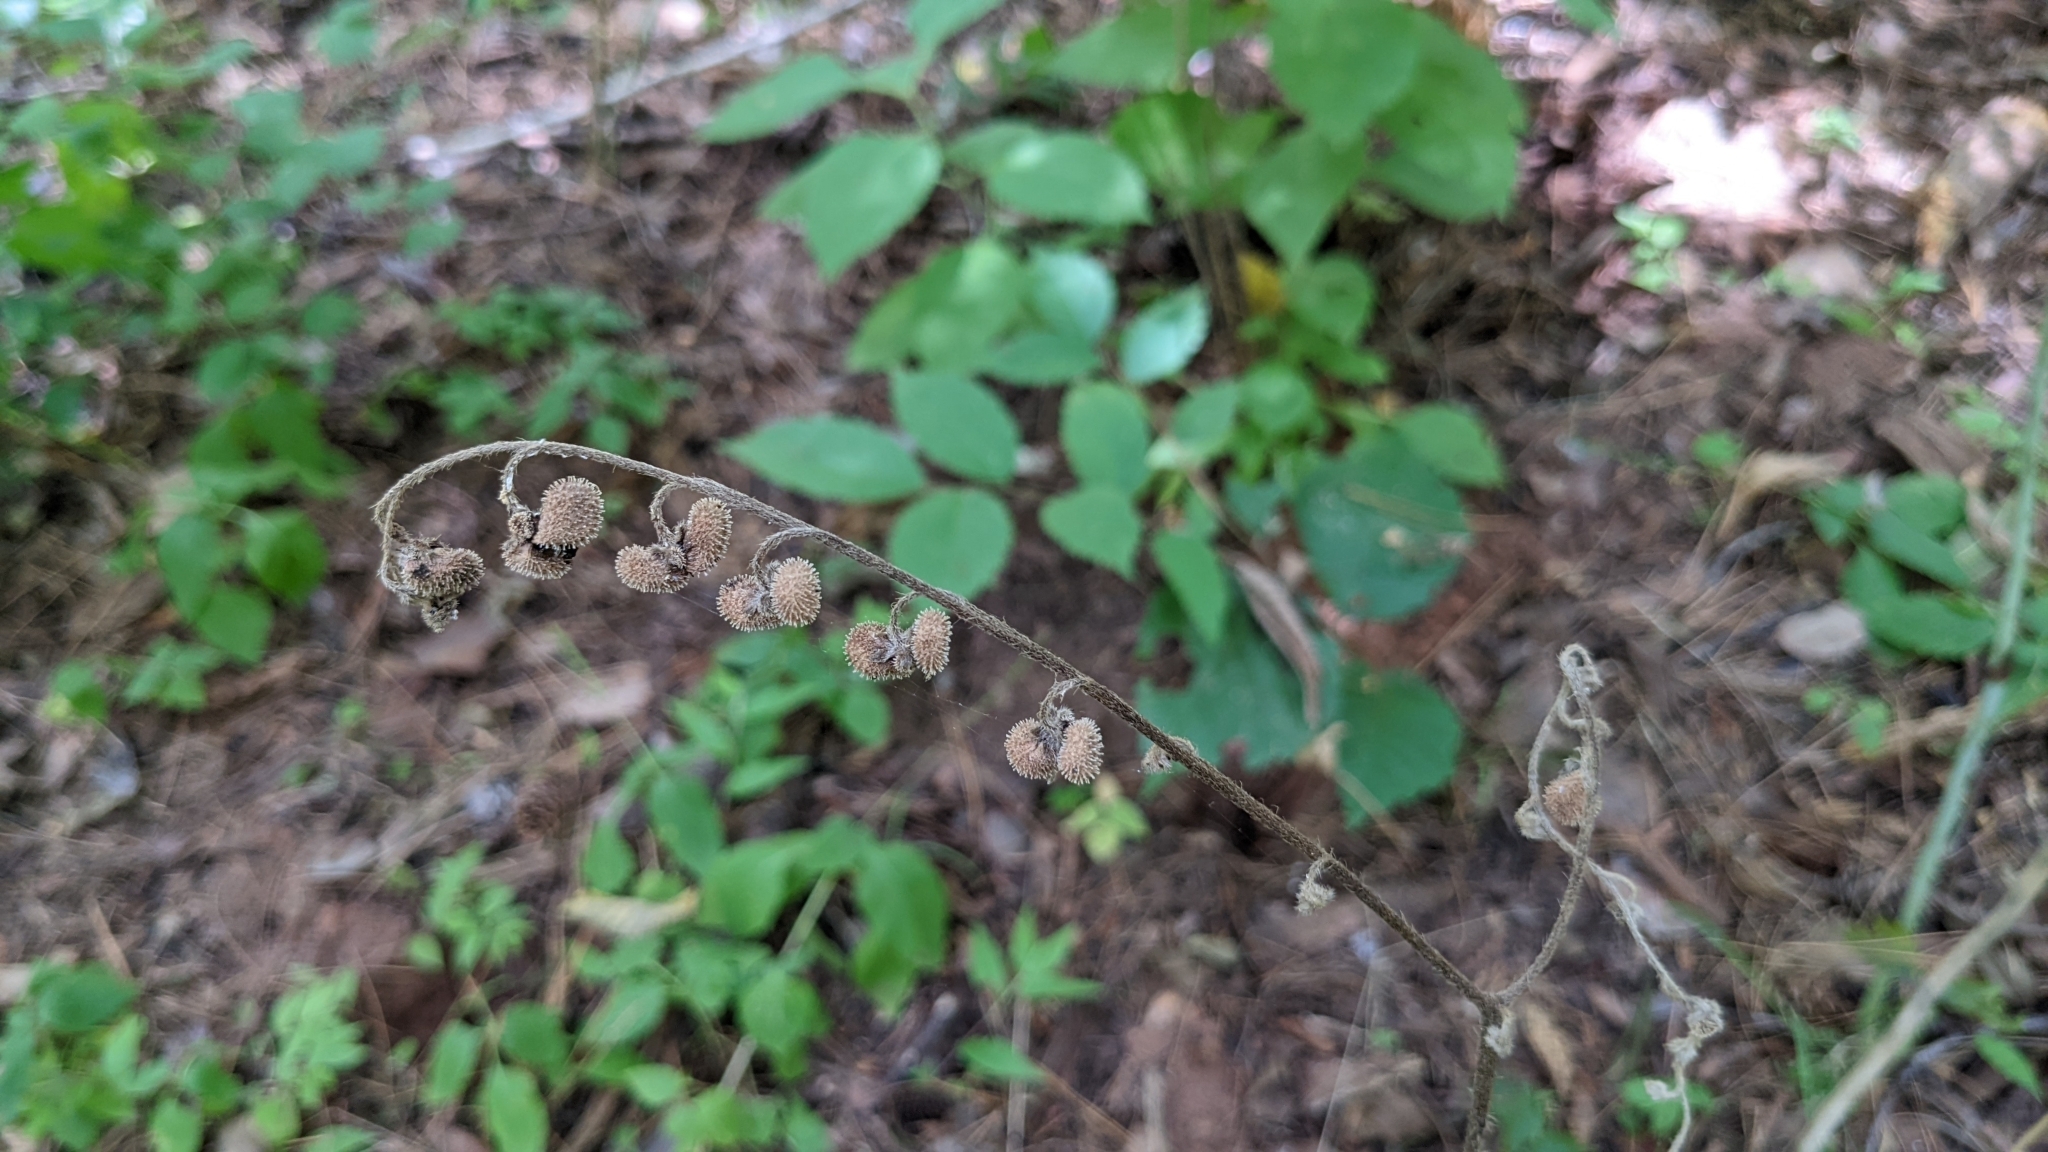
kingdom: Plantae
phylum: Tracheophyta
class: Magnoliopsida
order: Boraginales
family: Boraginaceae
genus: Andersonglossum
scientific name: Andersonglossum virginianum
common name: Wild comfrey
